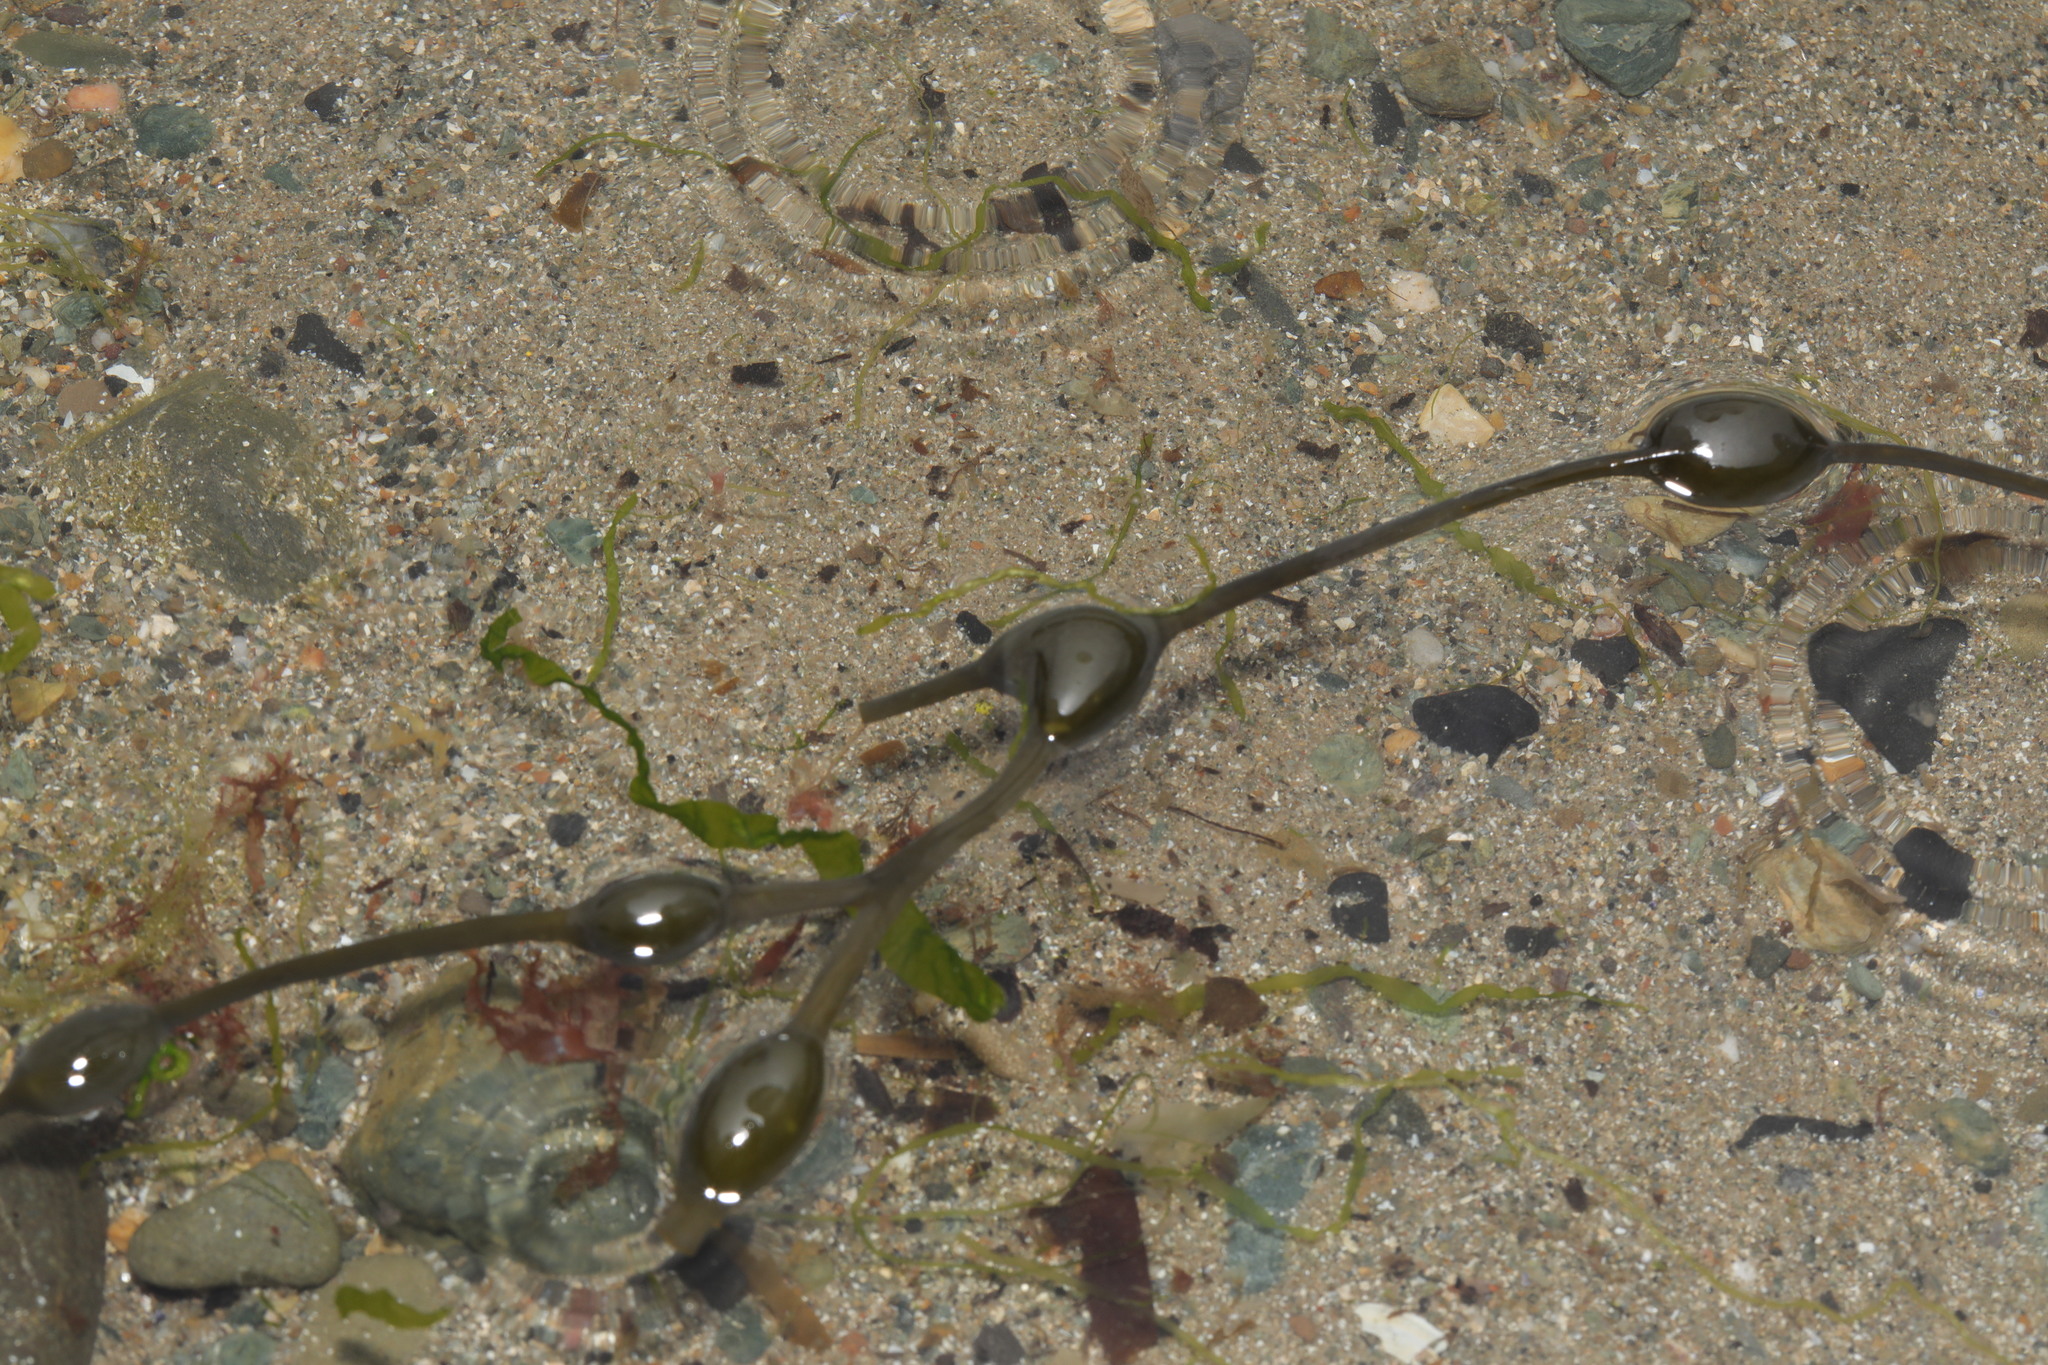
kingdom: Chromista
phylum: Ochrophyta
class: Phaeophyceae
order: Fucales
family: Fucaceae
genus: Ascophyllum
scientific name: Ascophyllum nodosum
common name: Knotted wrack
